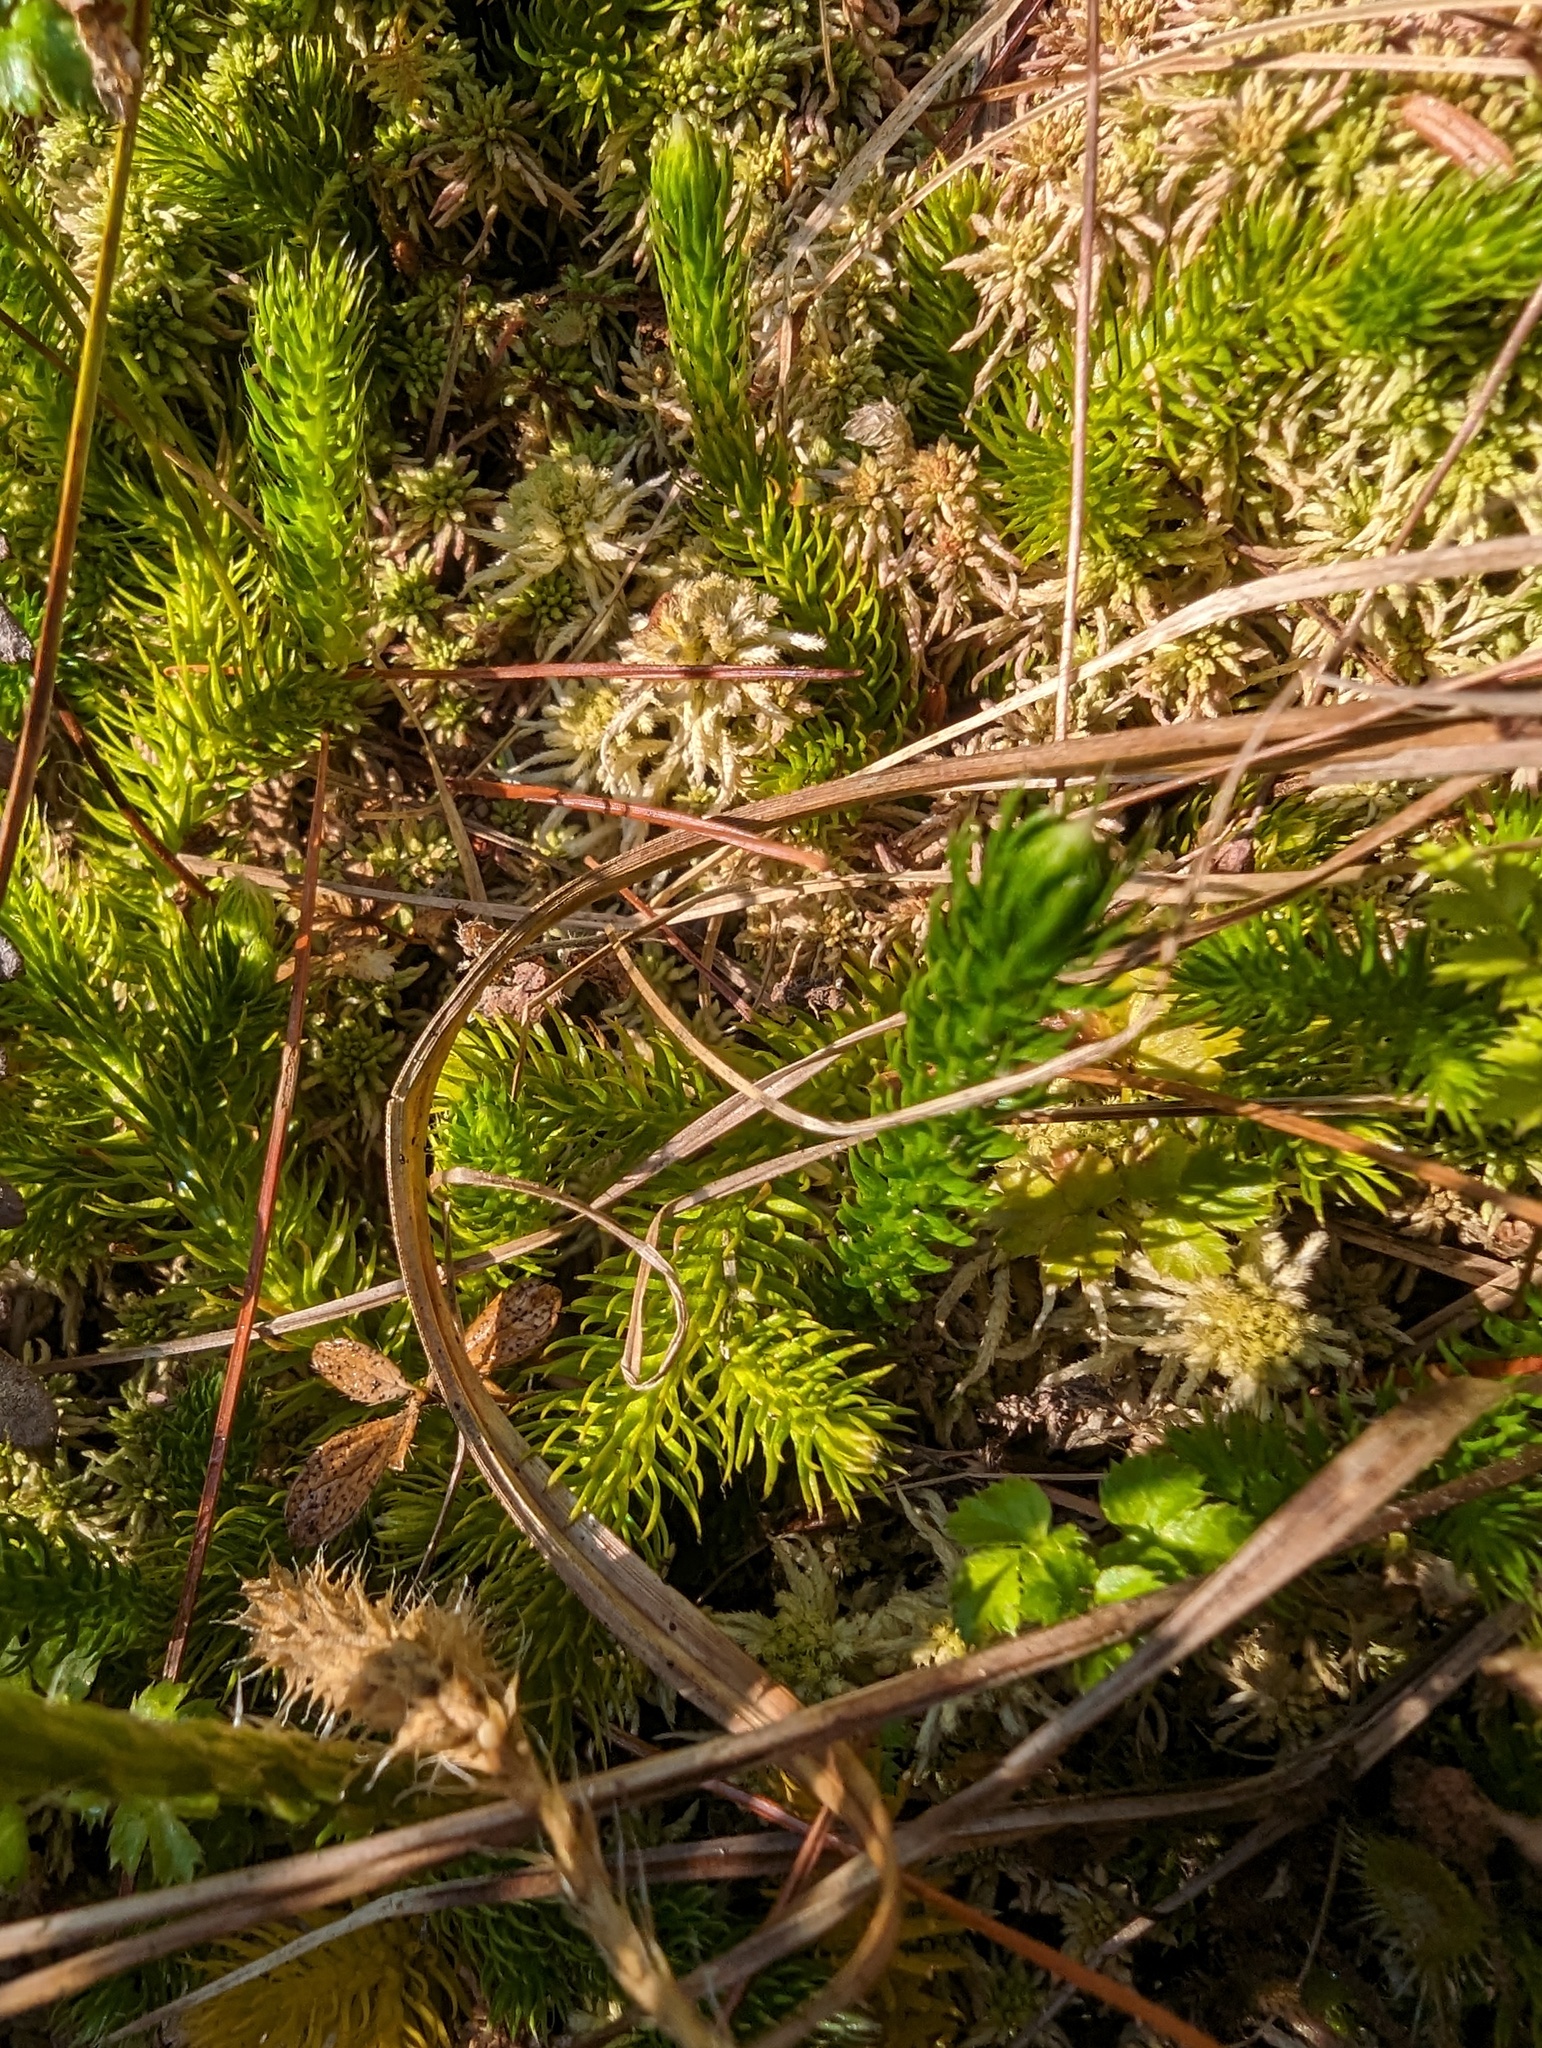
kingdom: Plantae
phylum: Tracheophyta
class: Lycopodiopsida
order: Lycopodiales
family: Lycopodiaceae
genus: Lycopodium
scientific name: Lycopodium clavatum
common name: Stag's-horn clubmoss
